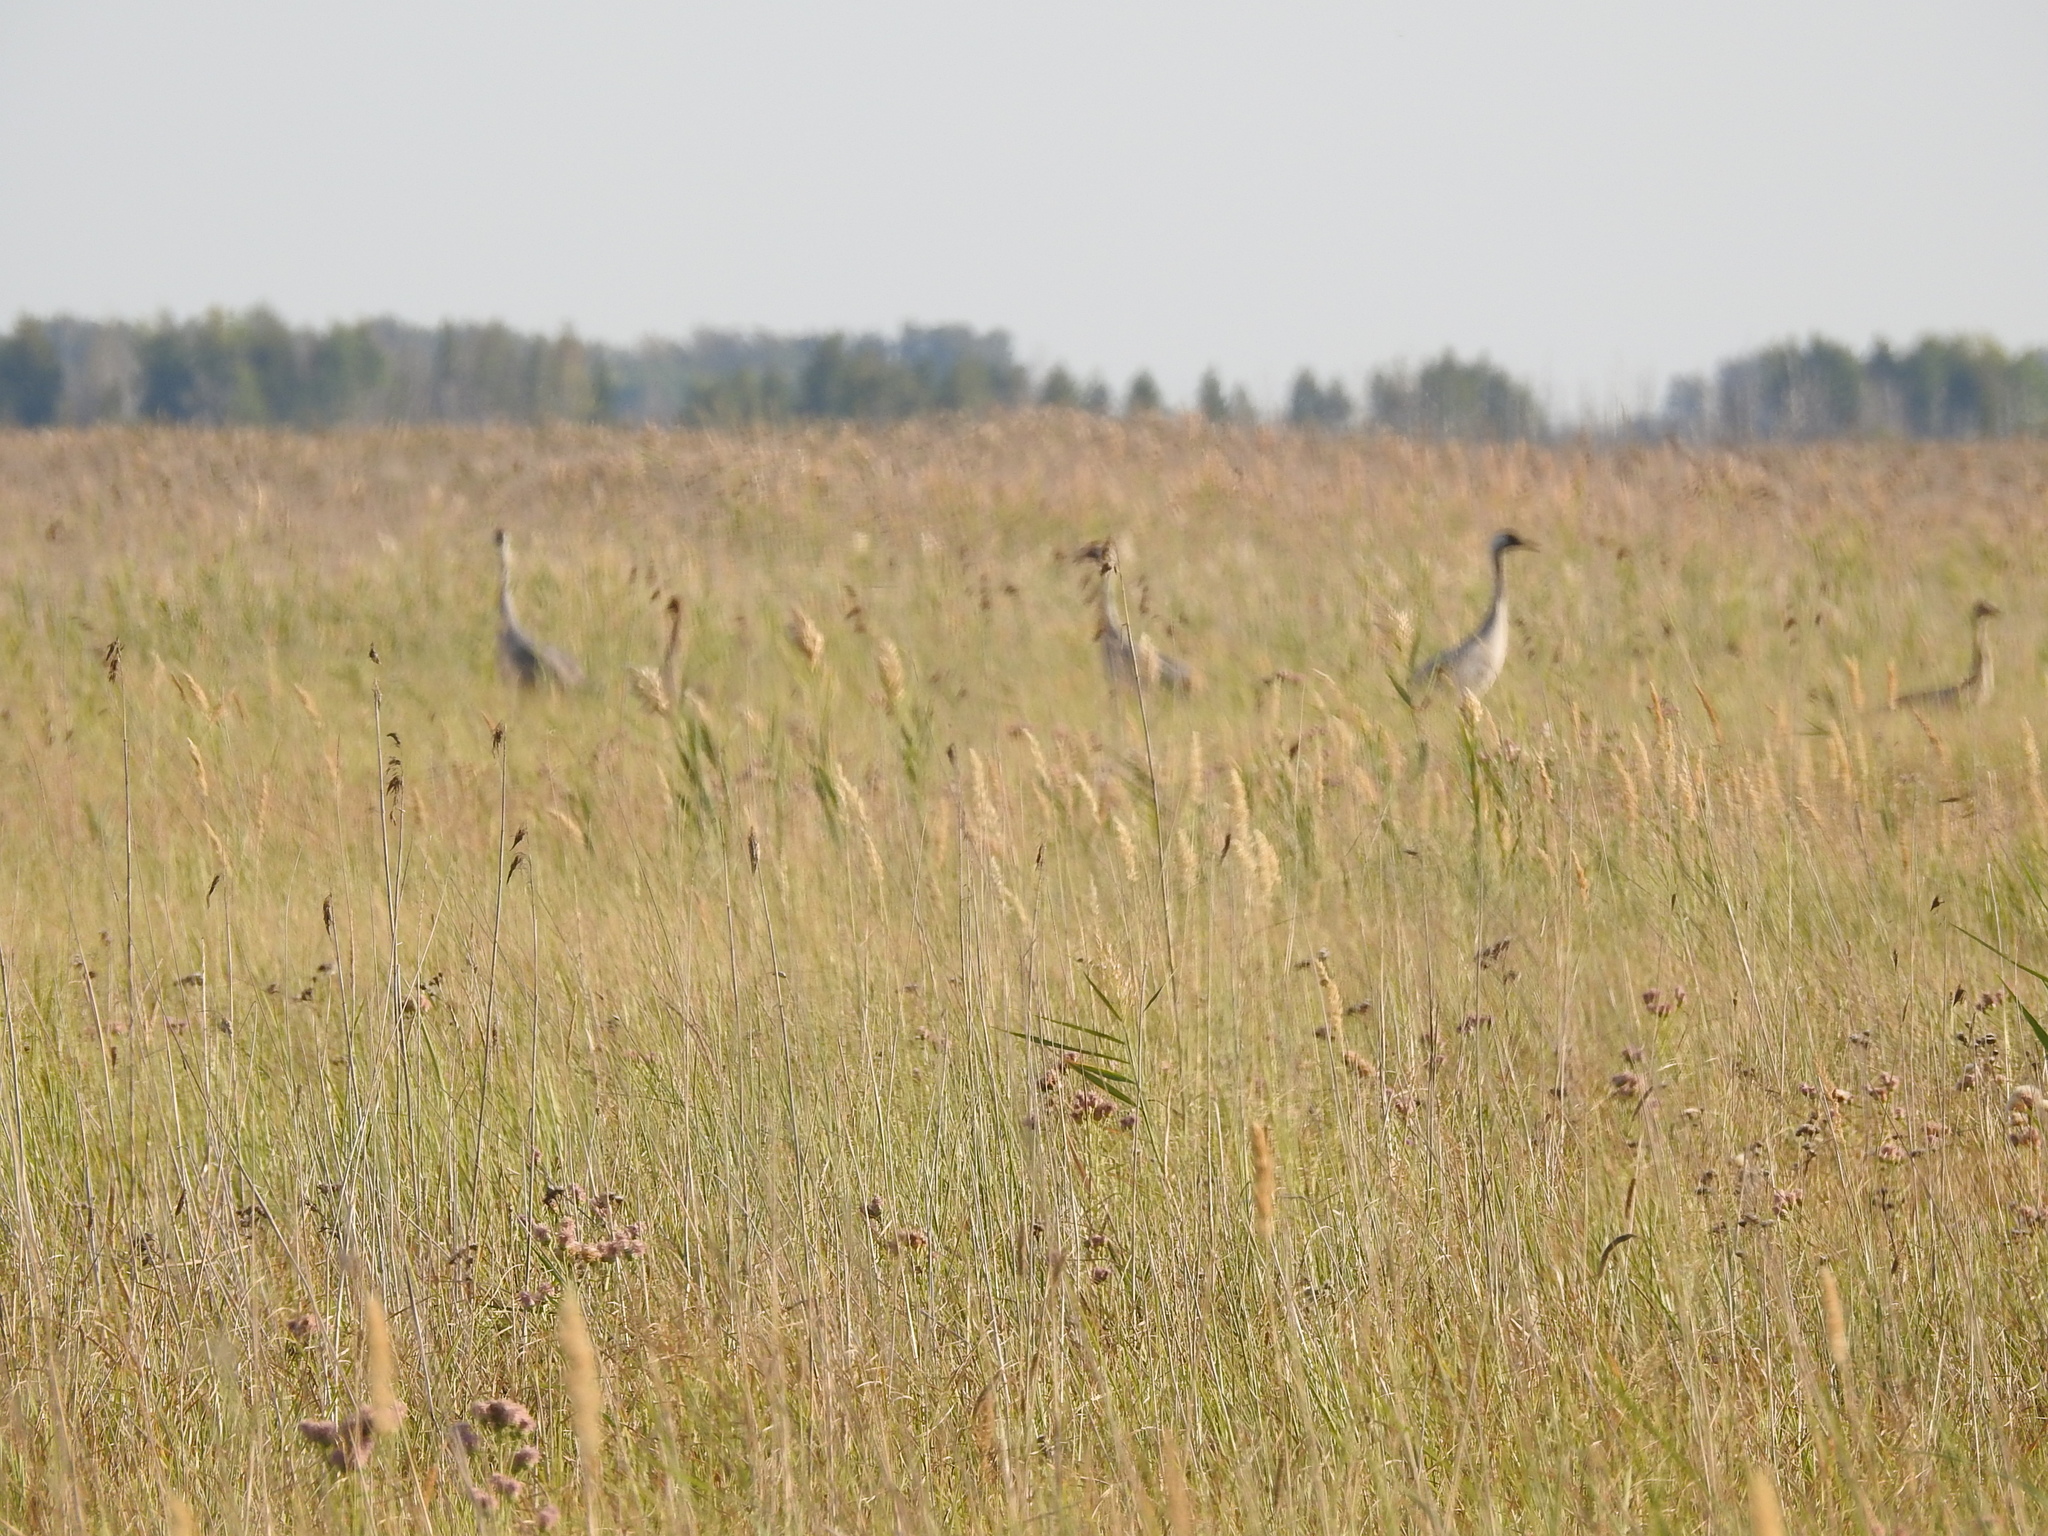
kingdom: Animalia
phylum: Chordata
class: Aves
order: Gruiformes
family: Gruidae
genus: Grus
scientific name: Grus grus
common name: Common crane
